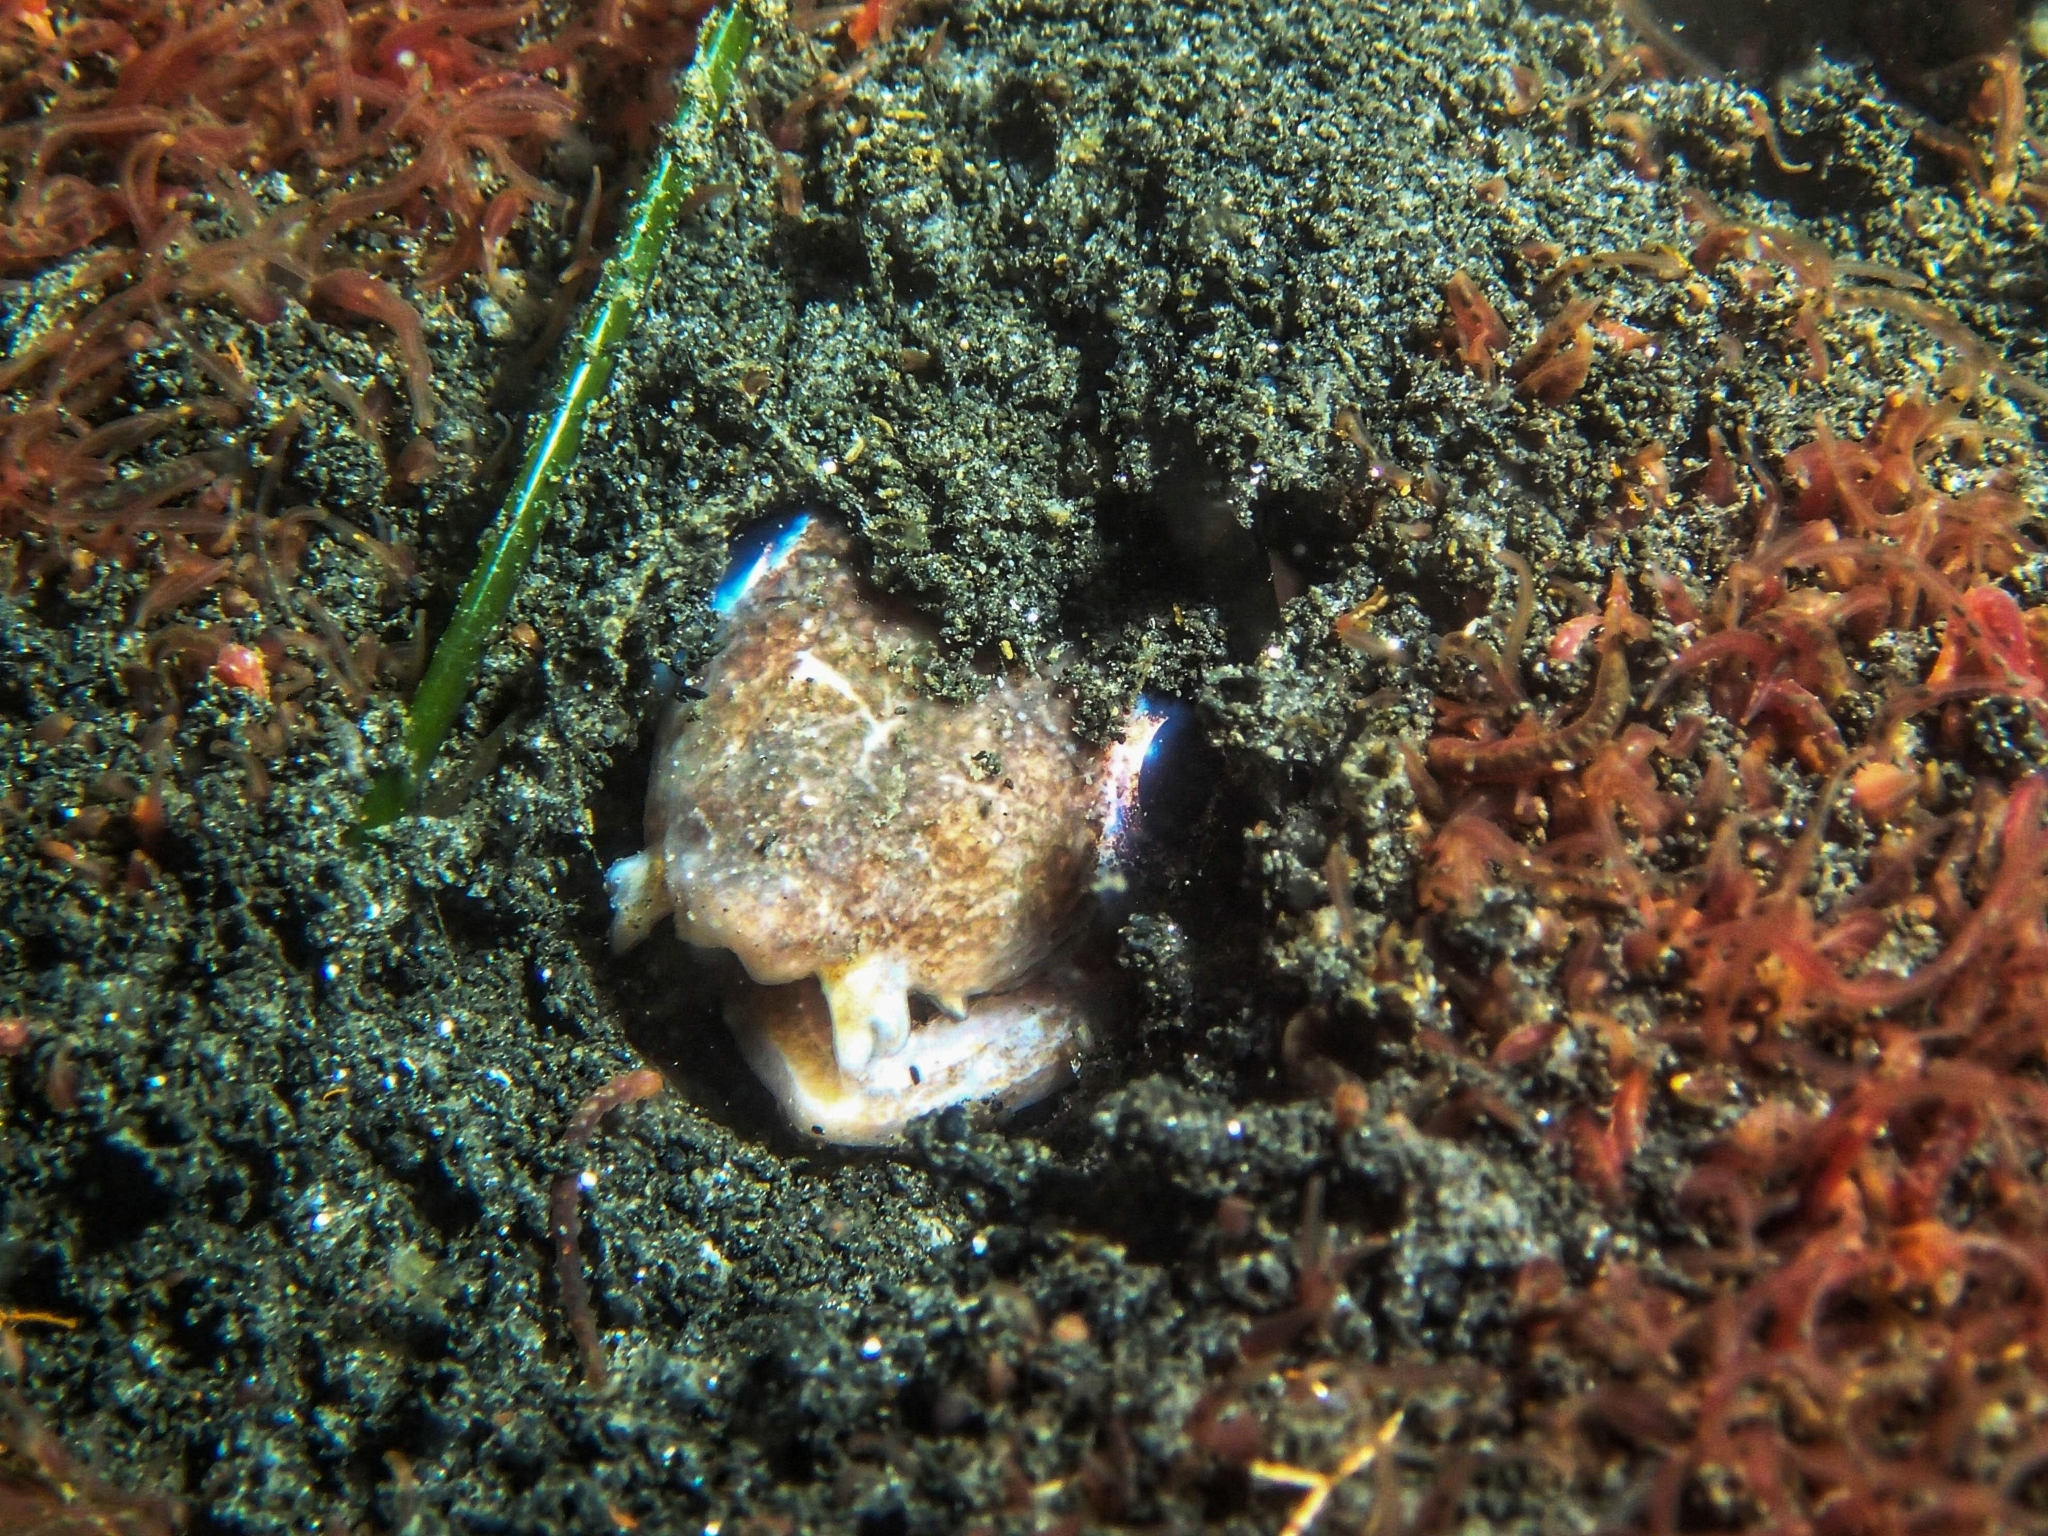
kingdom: Animalia
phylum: Chordata
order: Anguilliformes
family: Ophichthidae
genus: Ophichthus
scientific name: Ophichthus frontalis
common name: Deathbanded snake eel
